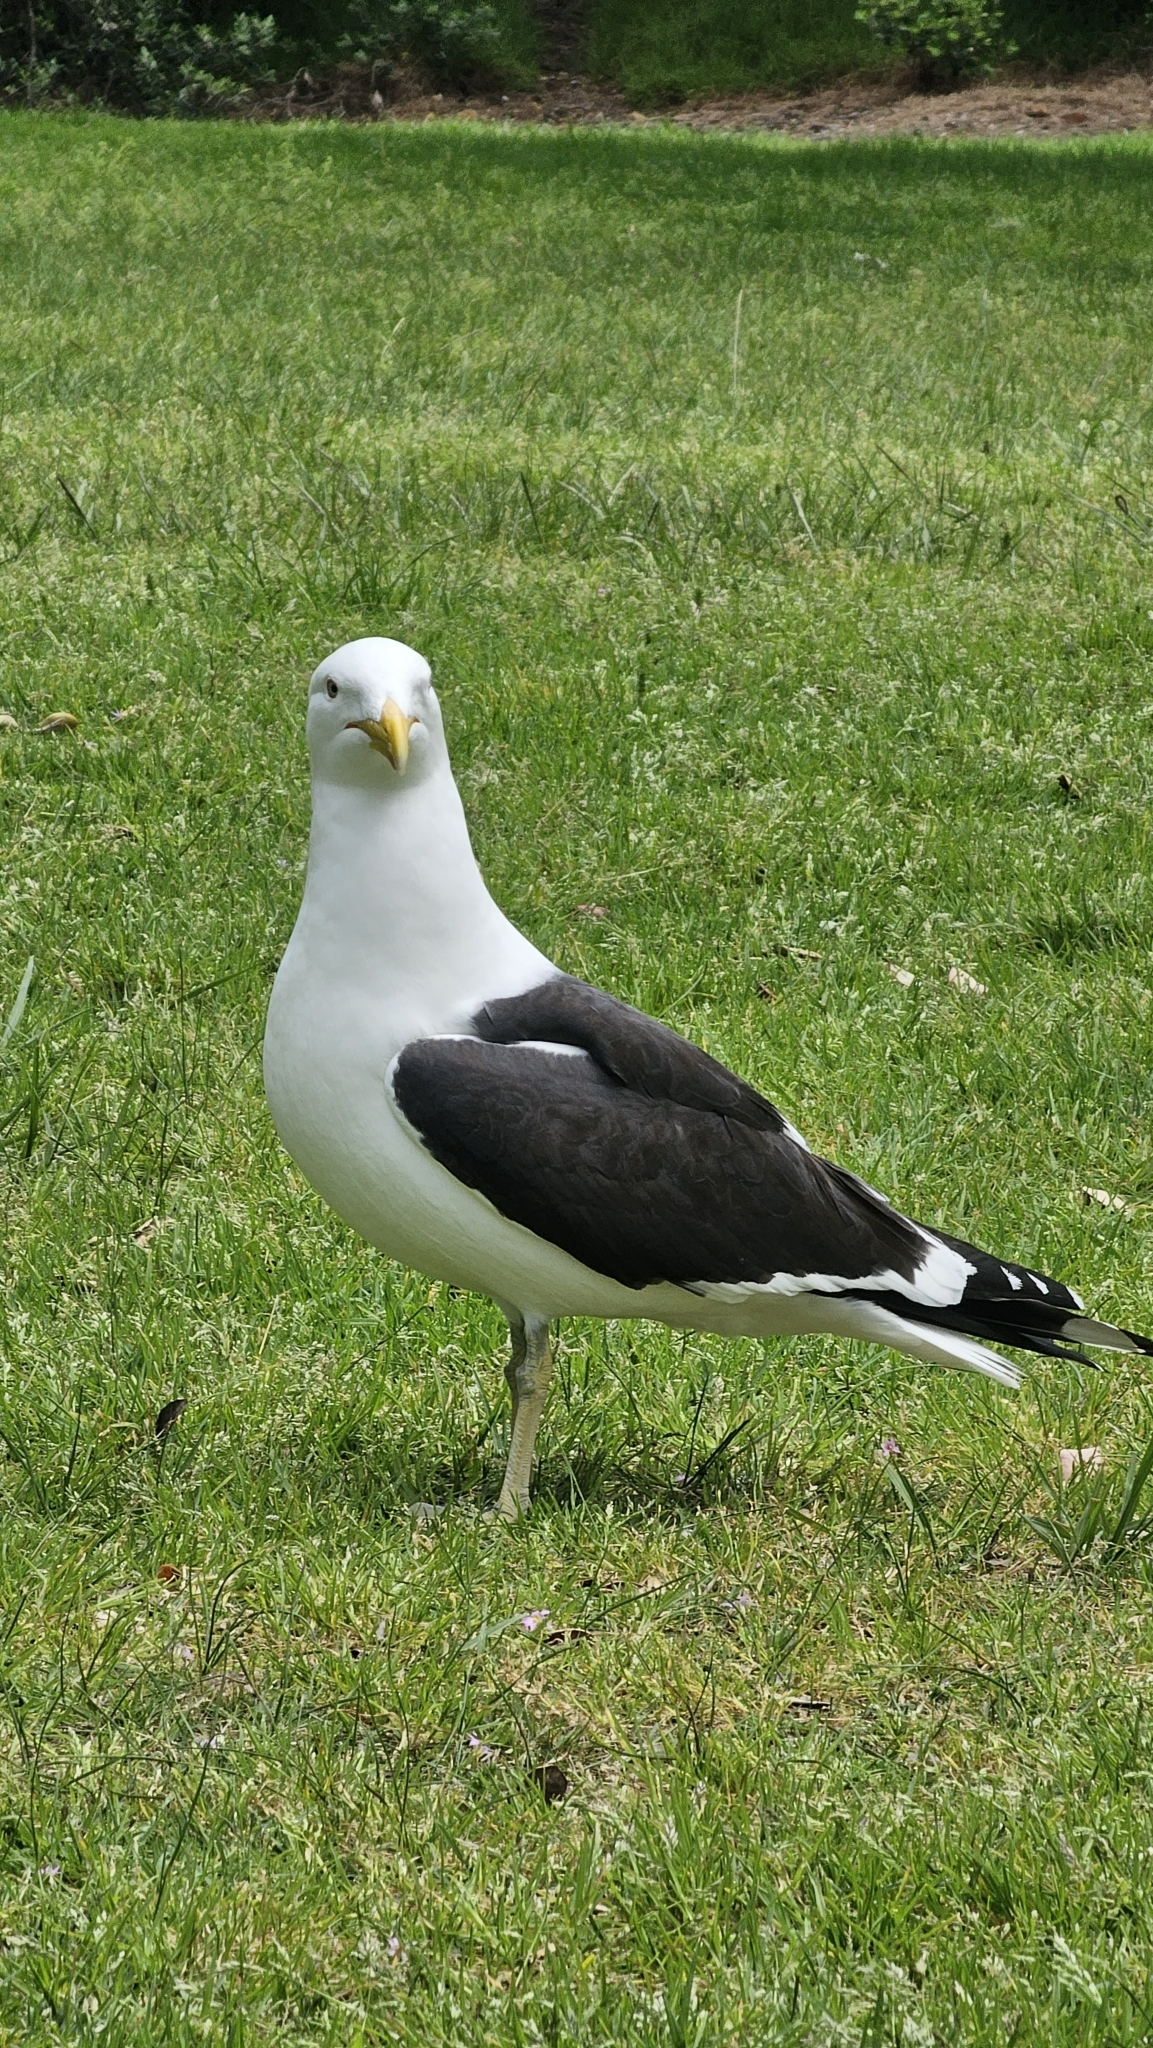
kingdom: Animalia
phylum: Chordata
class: Aves
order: Charadriiformes
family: Laridae
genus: Larus
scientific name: Larus dominicanus
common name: Kelp gull
